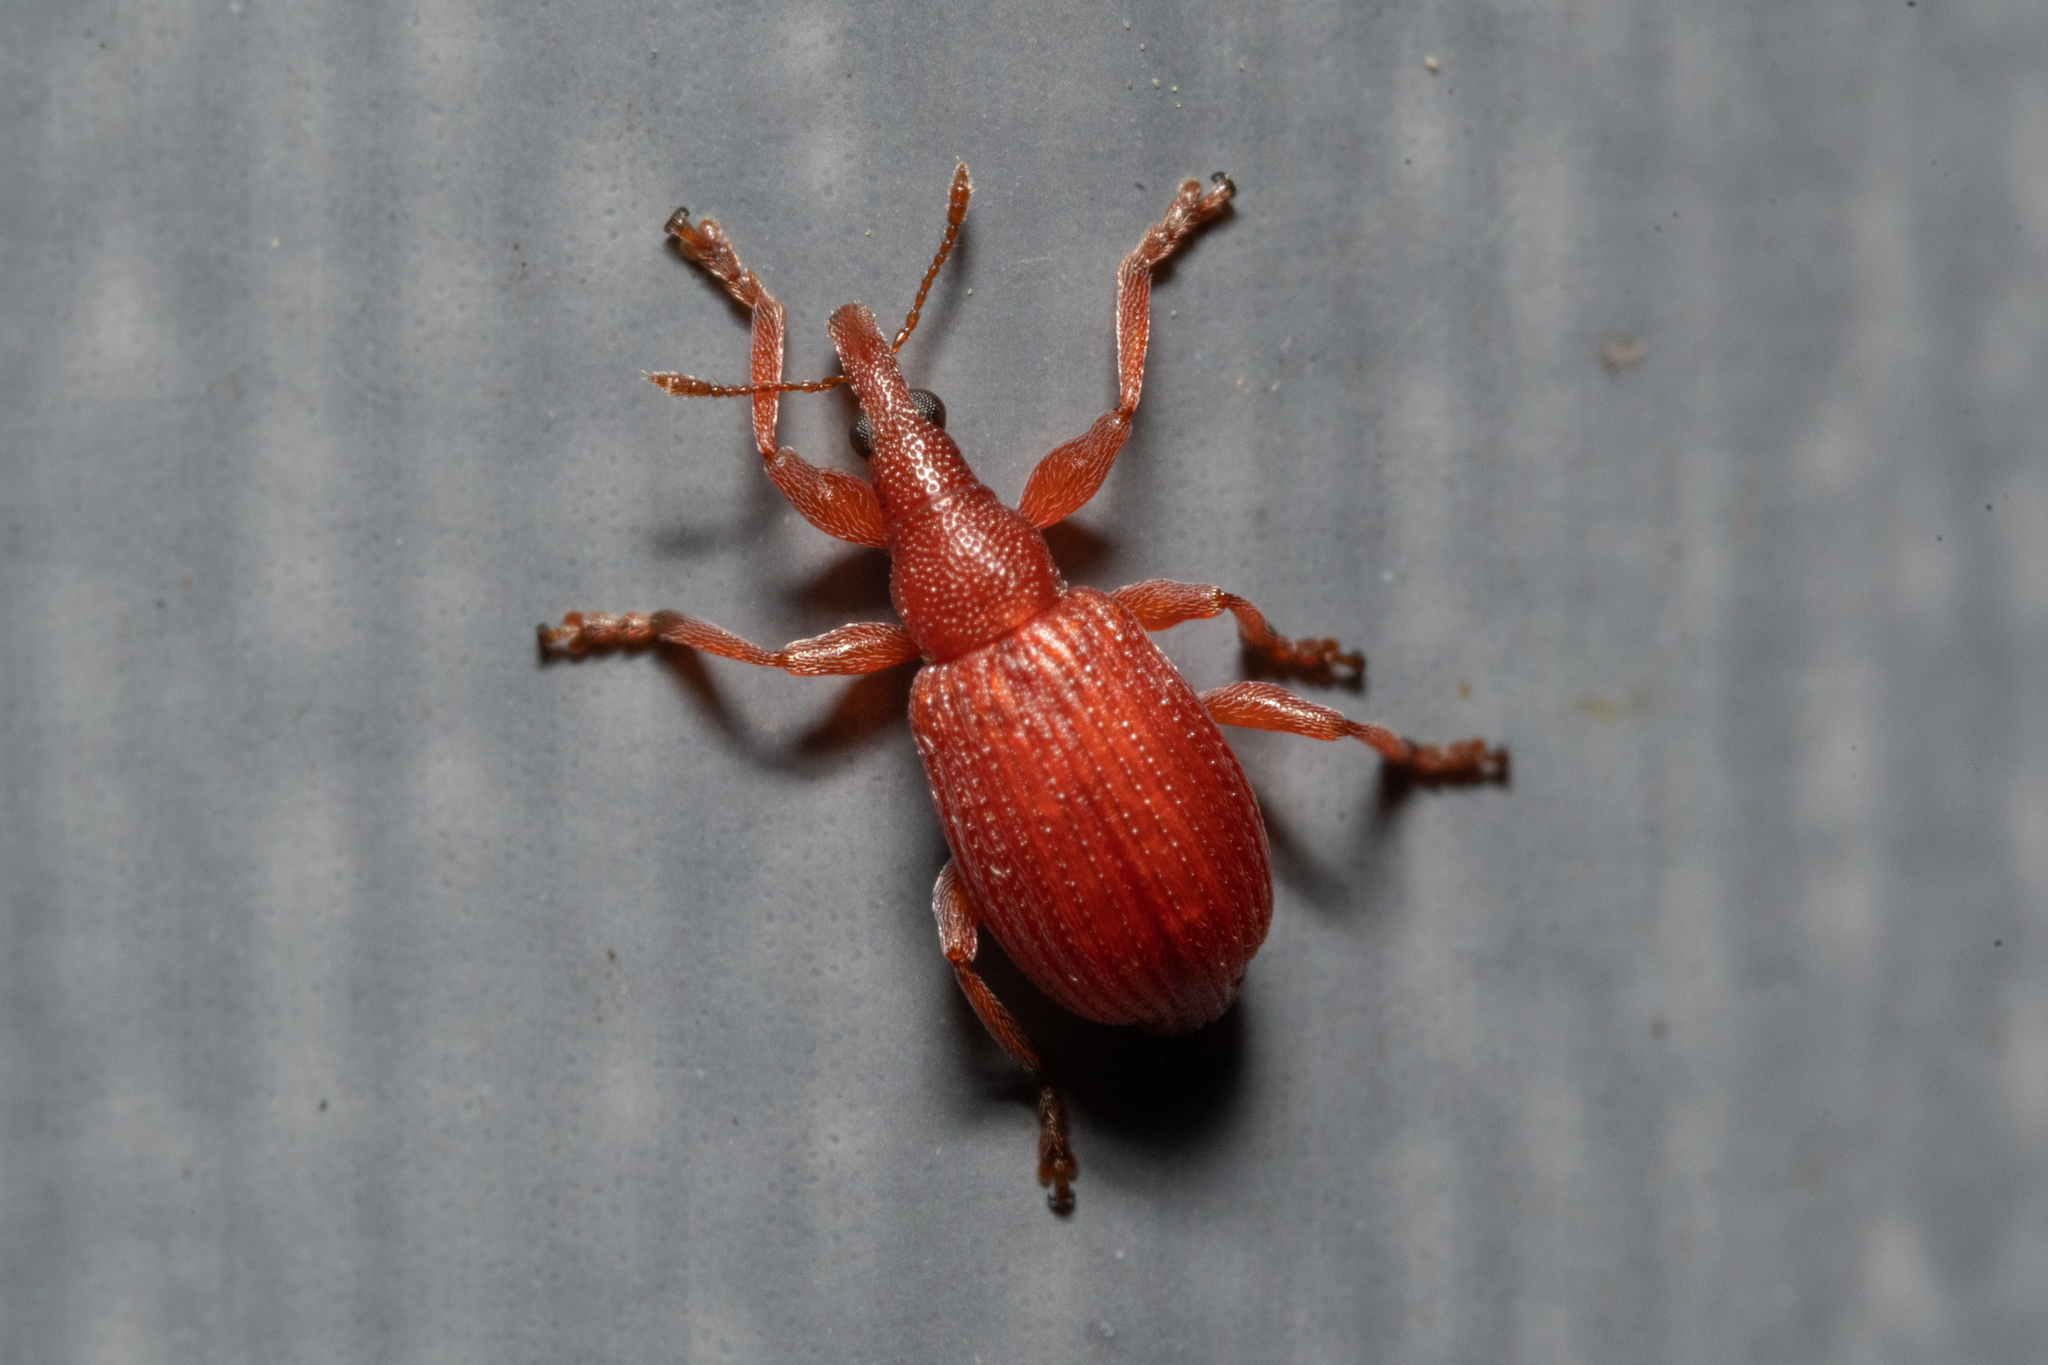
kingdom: Animalia
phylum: Arthropoda
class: Insecta
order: Coleoptera
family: Apionidae
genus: Apion
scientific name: Apion frumentarium
